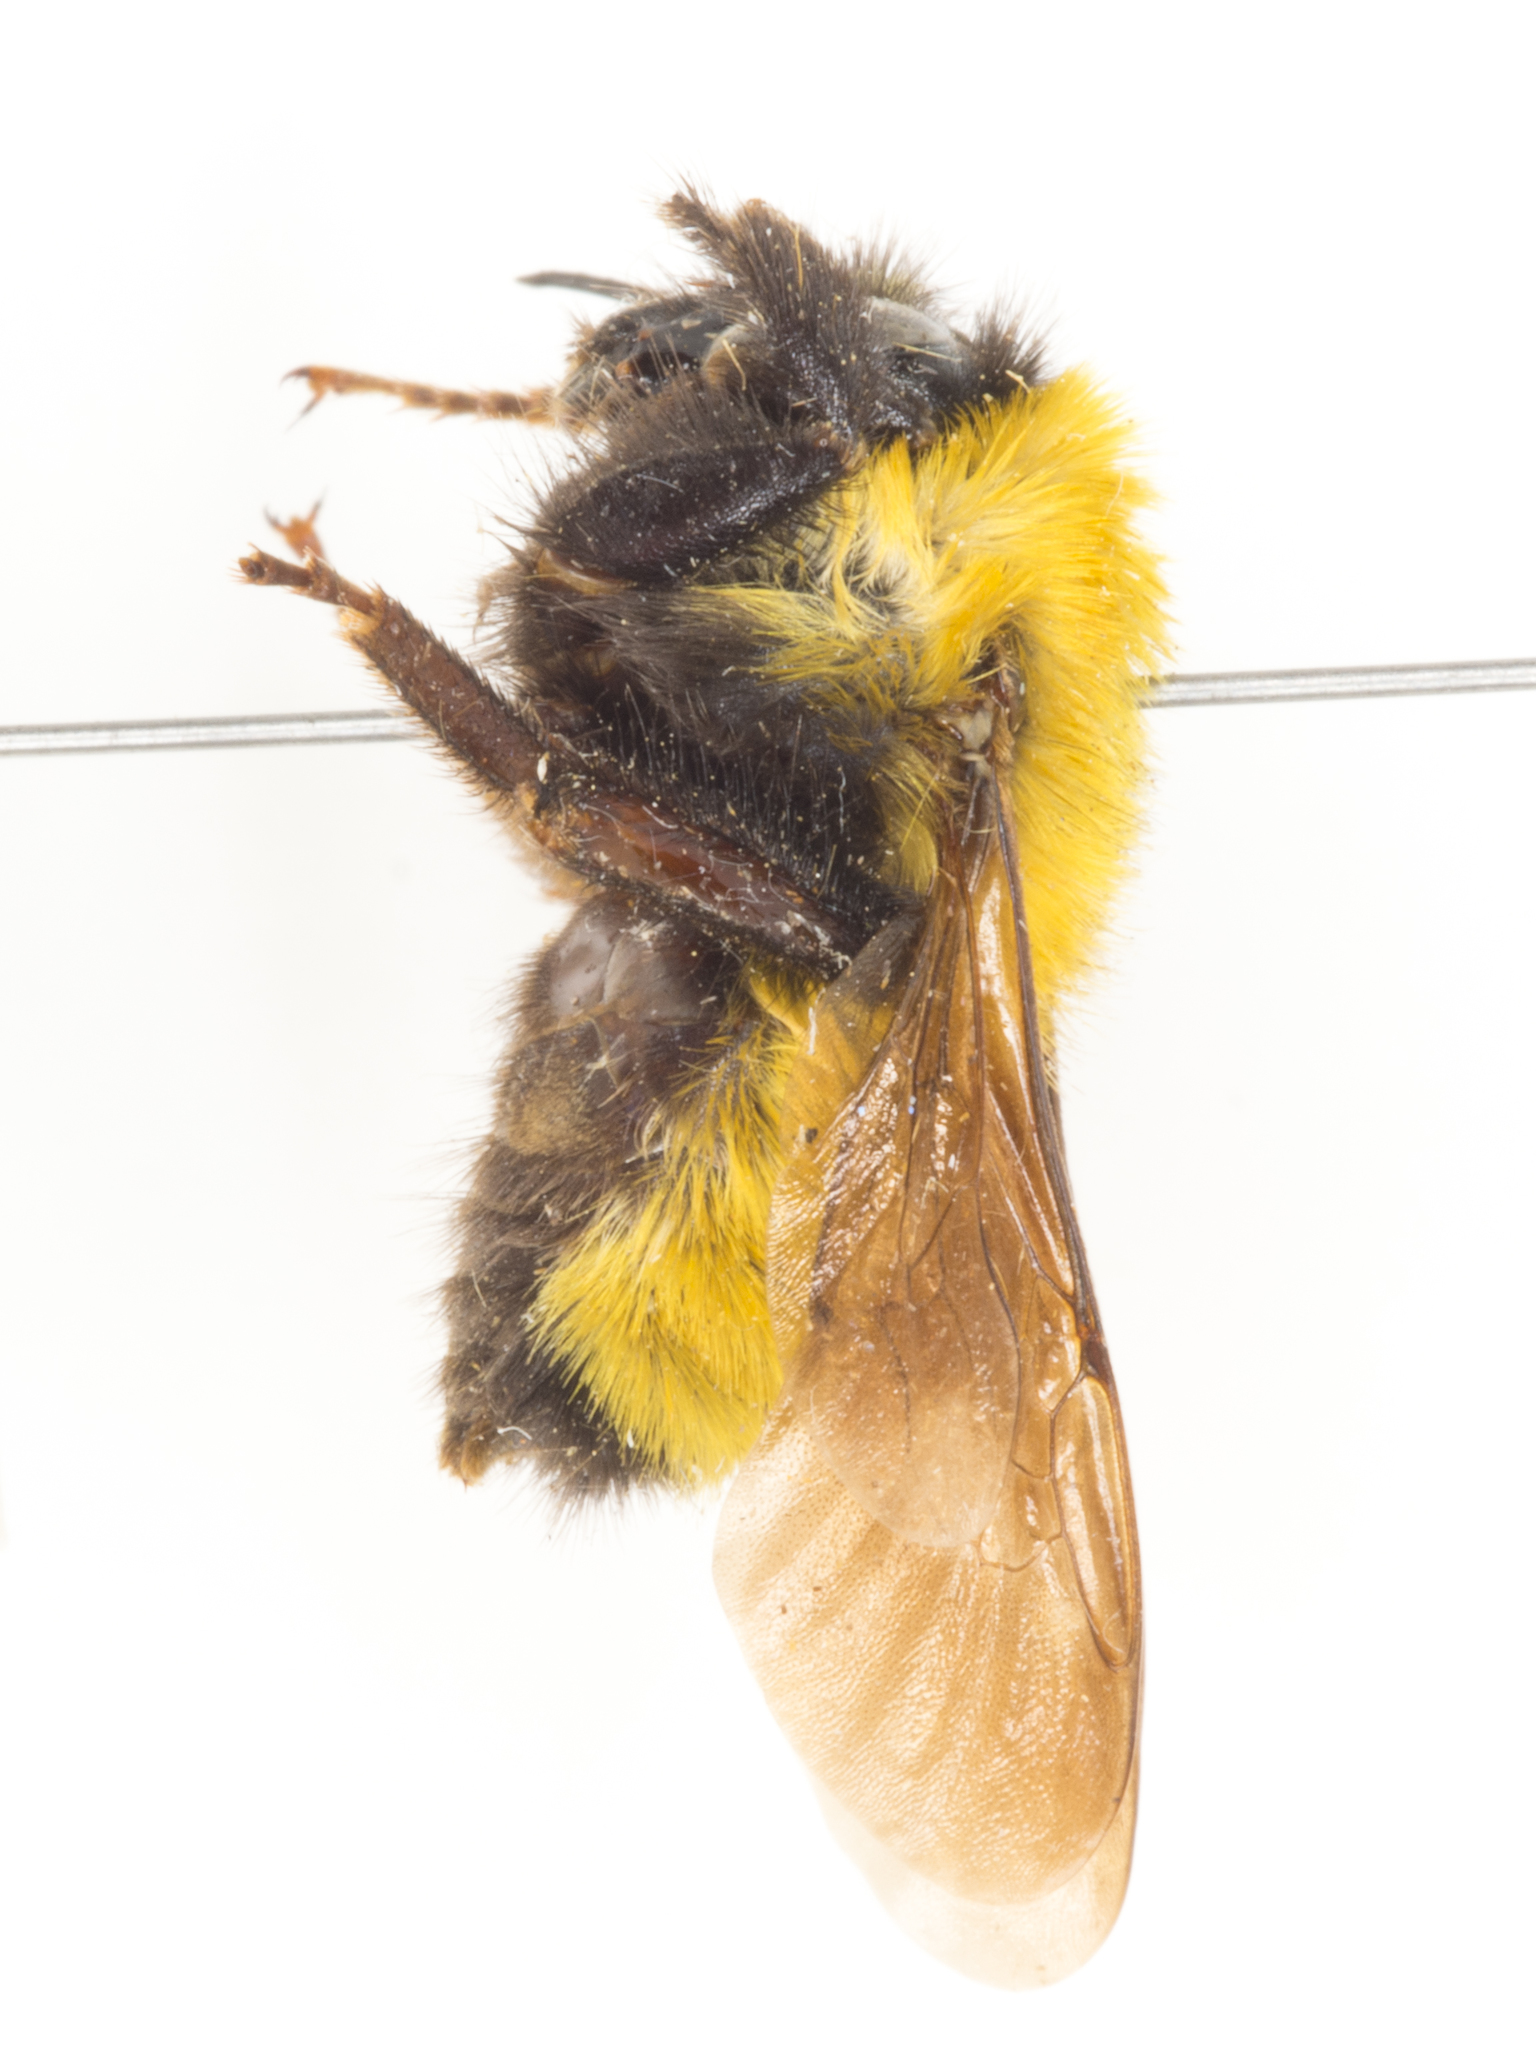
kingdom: Animalia
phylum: Arthropoda
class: Insecta
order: Hymenoptera
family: Apidae
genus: Bombus
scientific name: Bombus fervidus
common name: Yellow bumble bee
